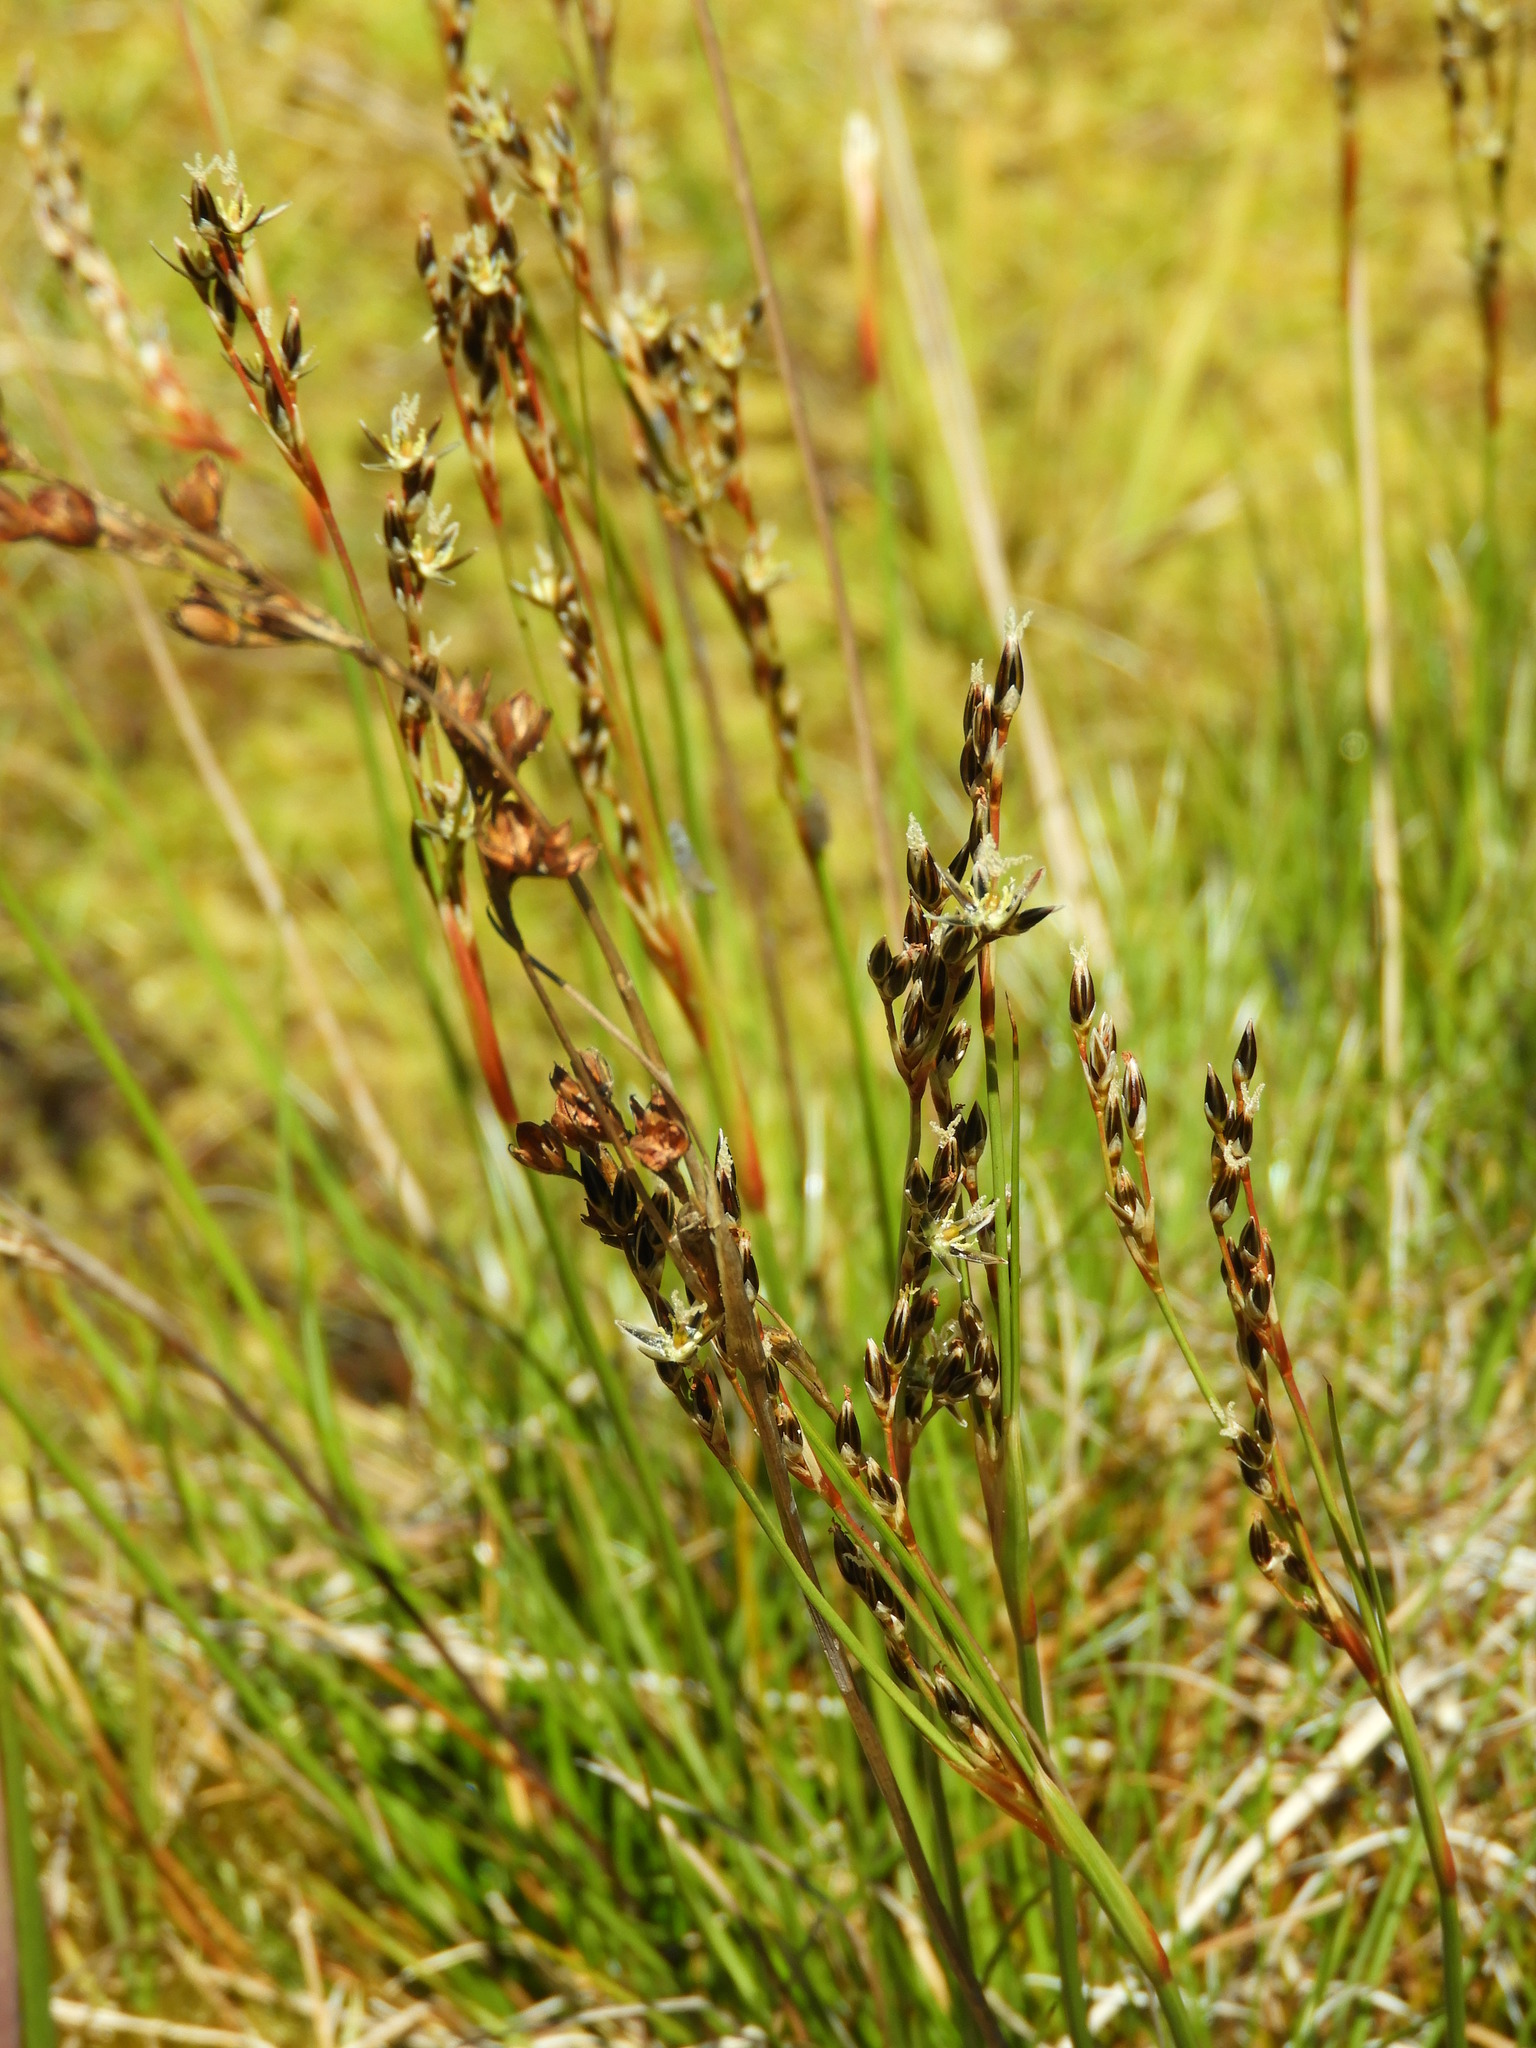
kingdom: Plantae
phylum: Tracheophyta
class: Liliopsida
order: Poales
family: Juncaceae
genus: Juncus
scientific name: Juncus squarrosus
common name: Heath rush
